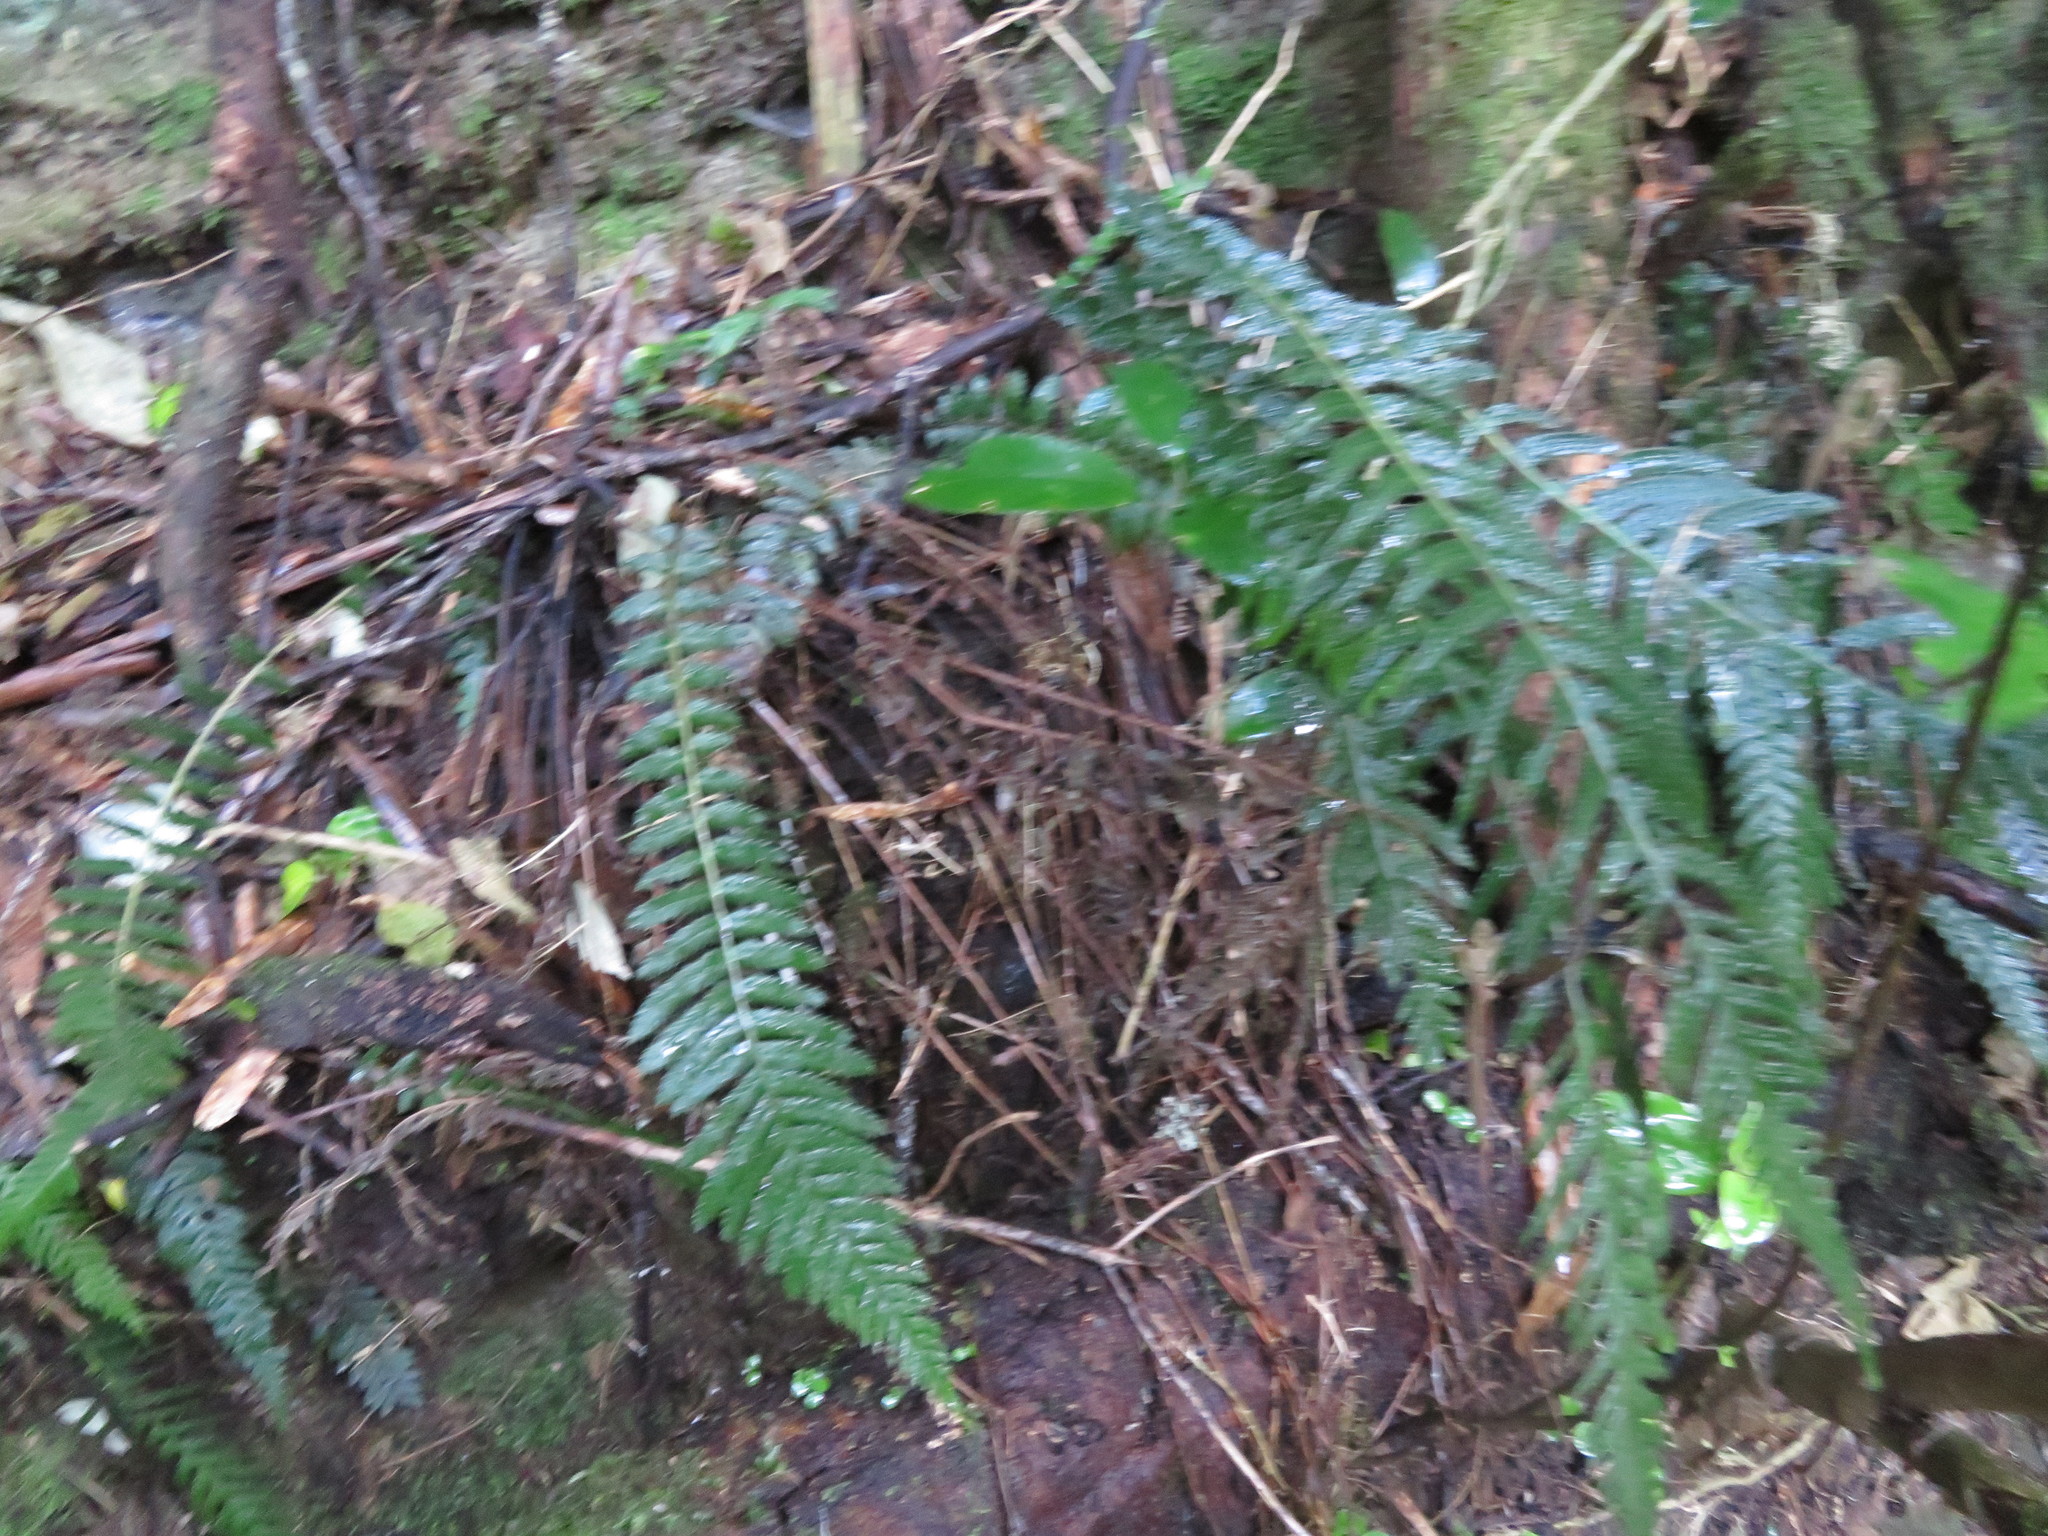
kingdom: Plantae
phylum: Tracheophyta
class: Polypodiopsida
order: Polypodiales
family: Blechnaceae
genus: Doodia
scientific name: Doodia australis
